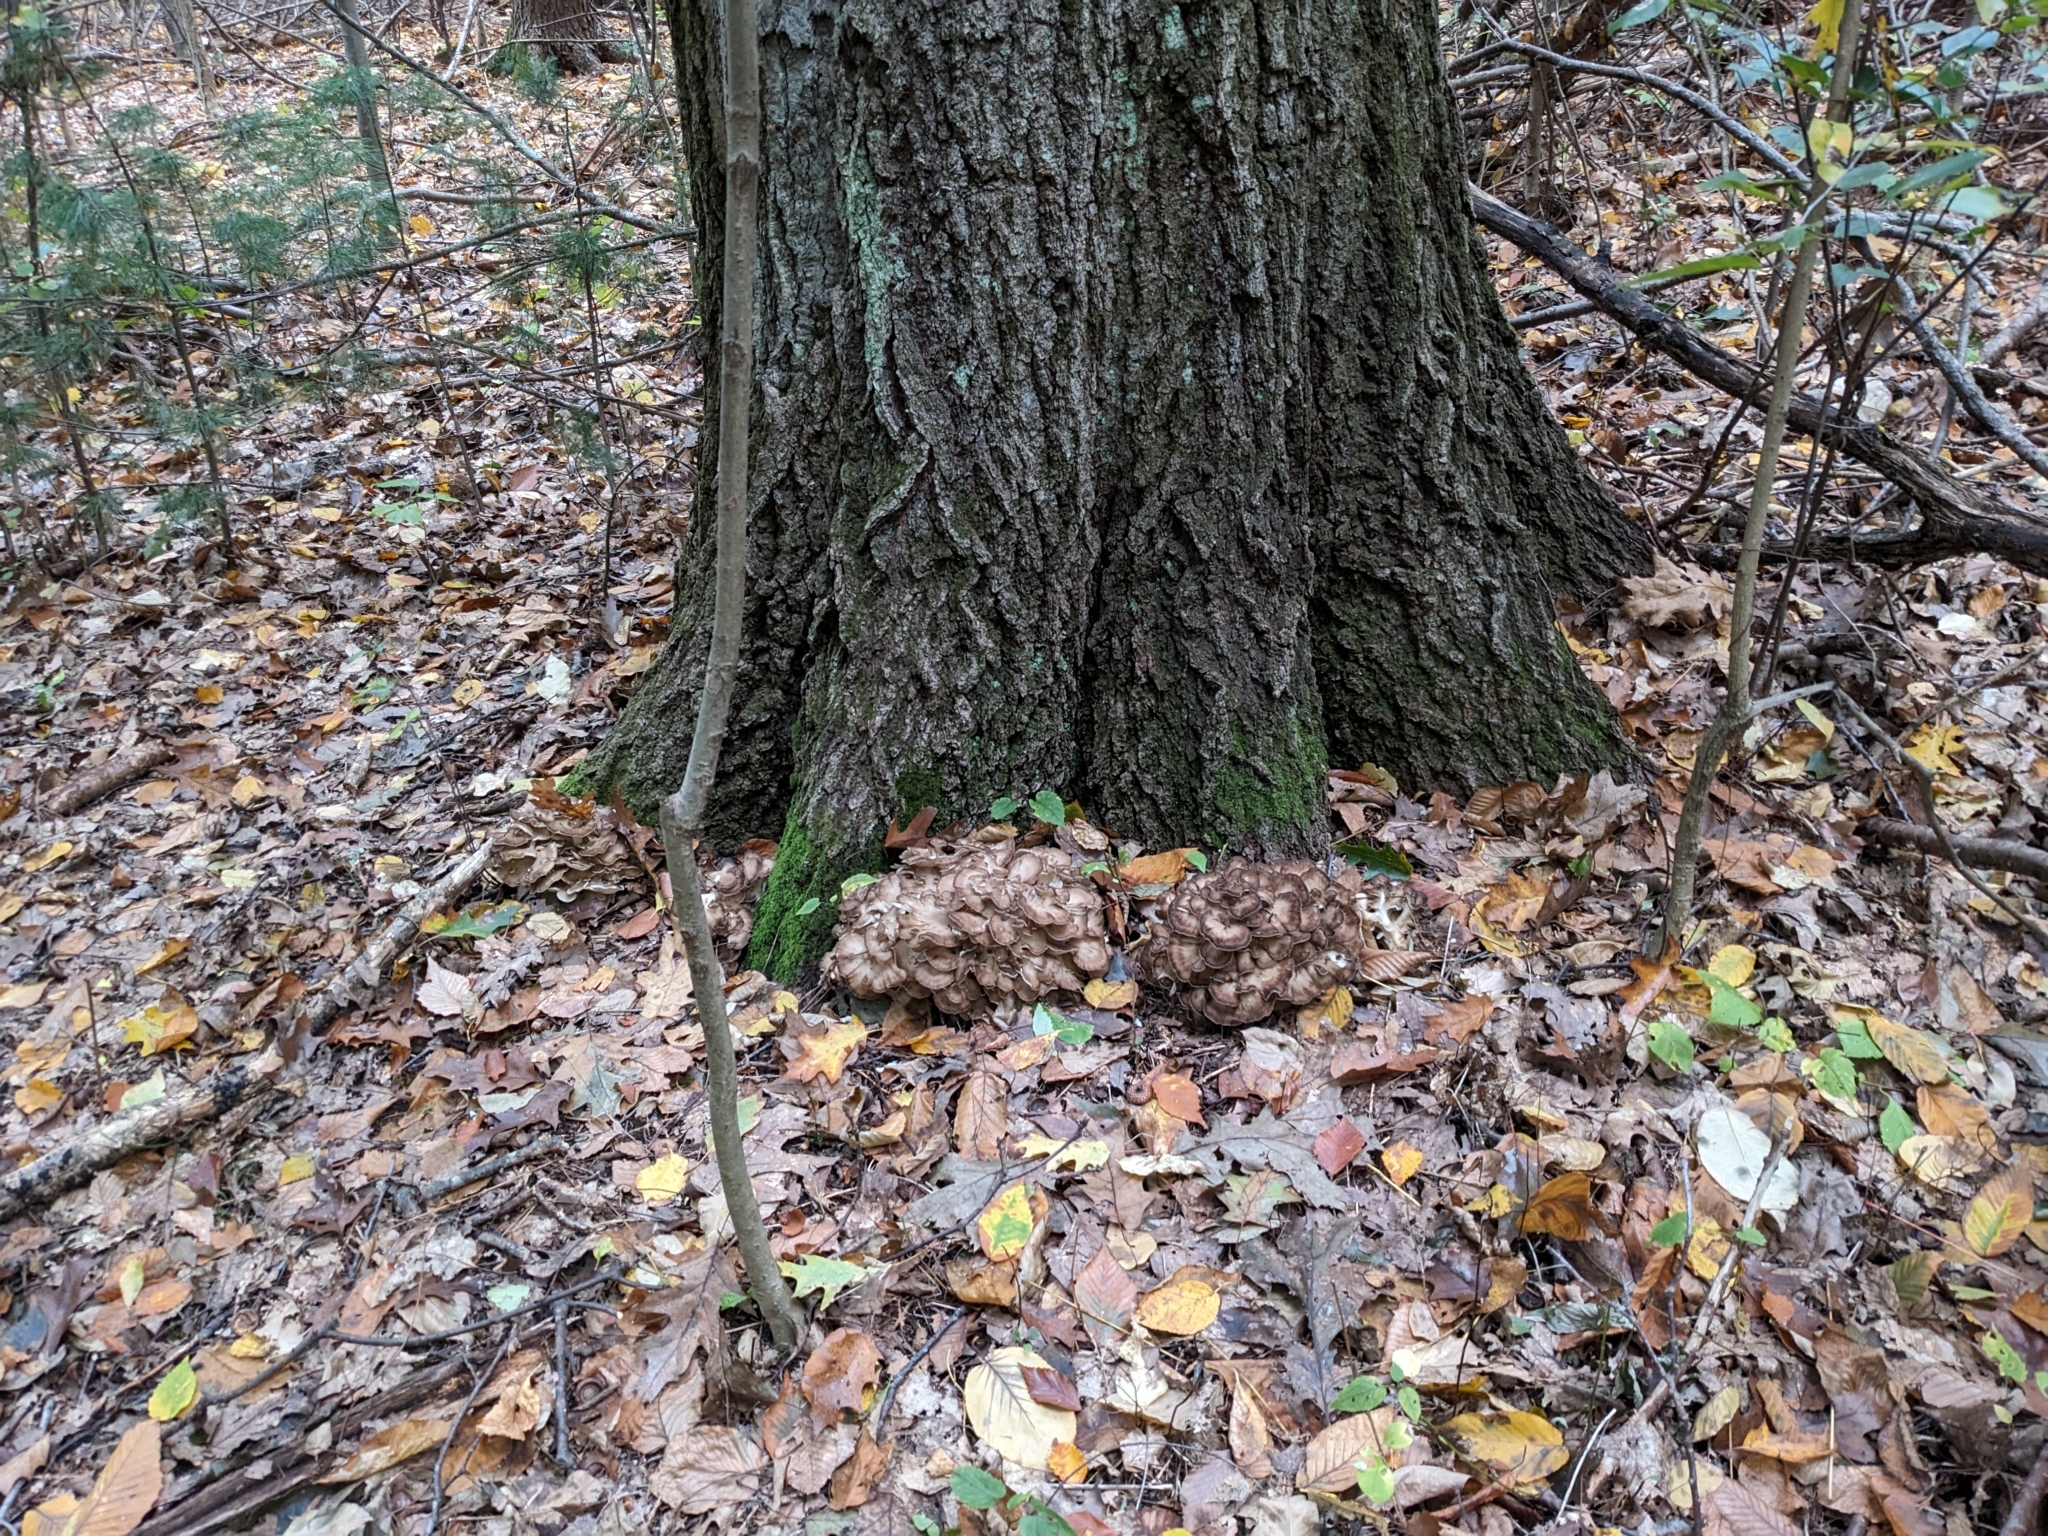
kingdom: Fungi
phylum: Basidiomycota
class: Agaricomycetes
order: Polyporales
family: Grifolaceae
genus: Grifola
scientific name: Grifola frondosa
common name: Hen of the woods
